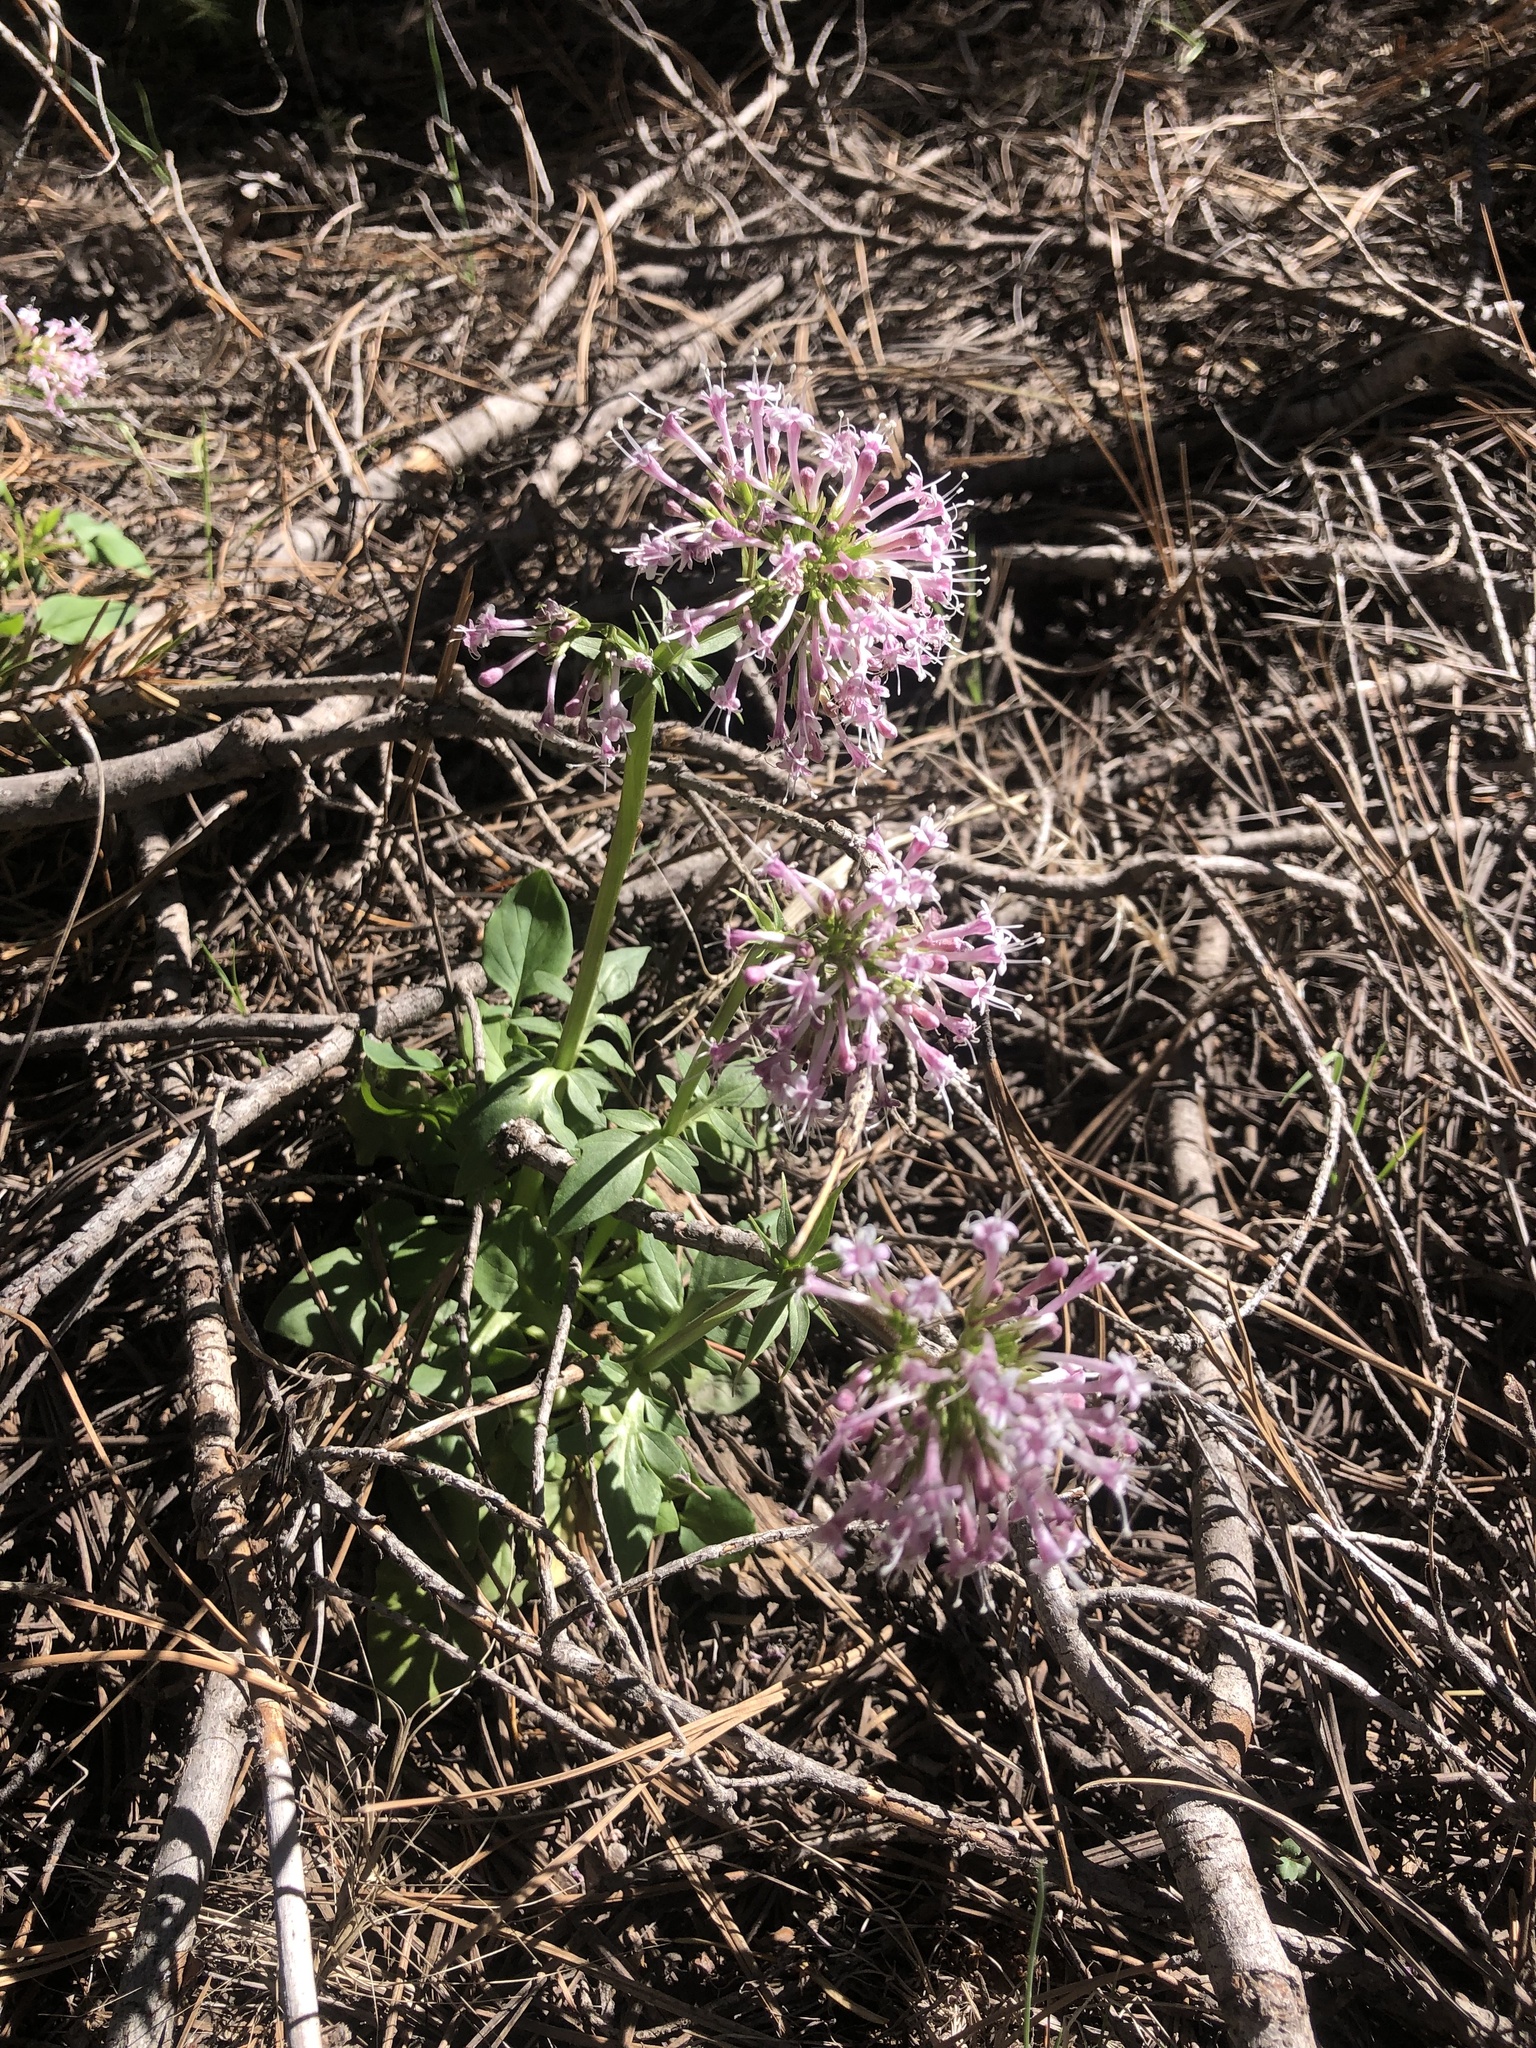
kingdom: Plantae
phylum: Tracheophyta
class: Magnoliopsida
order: Dipsacales
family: Caprifoliaceae
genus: Valeriana
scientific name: Valeriana arizonica
